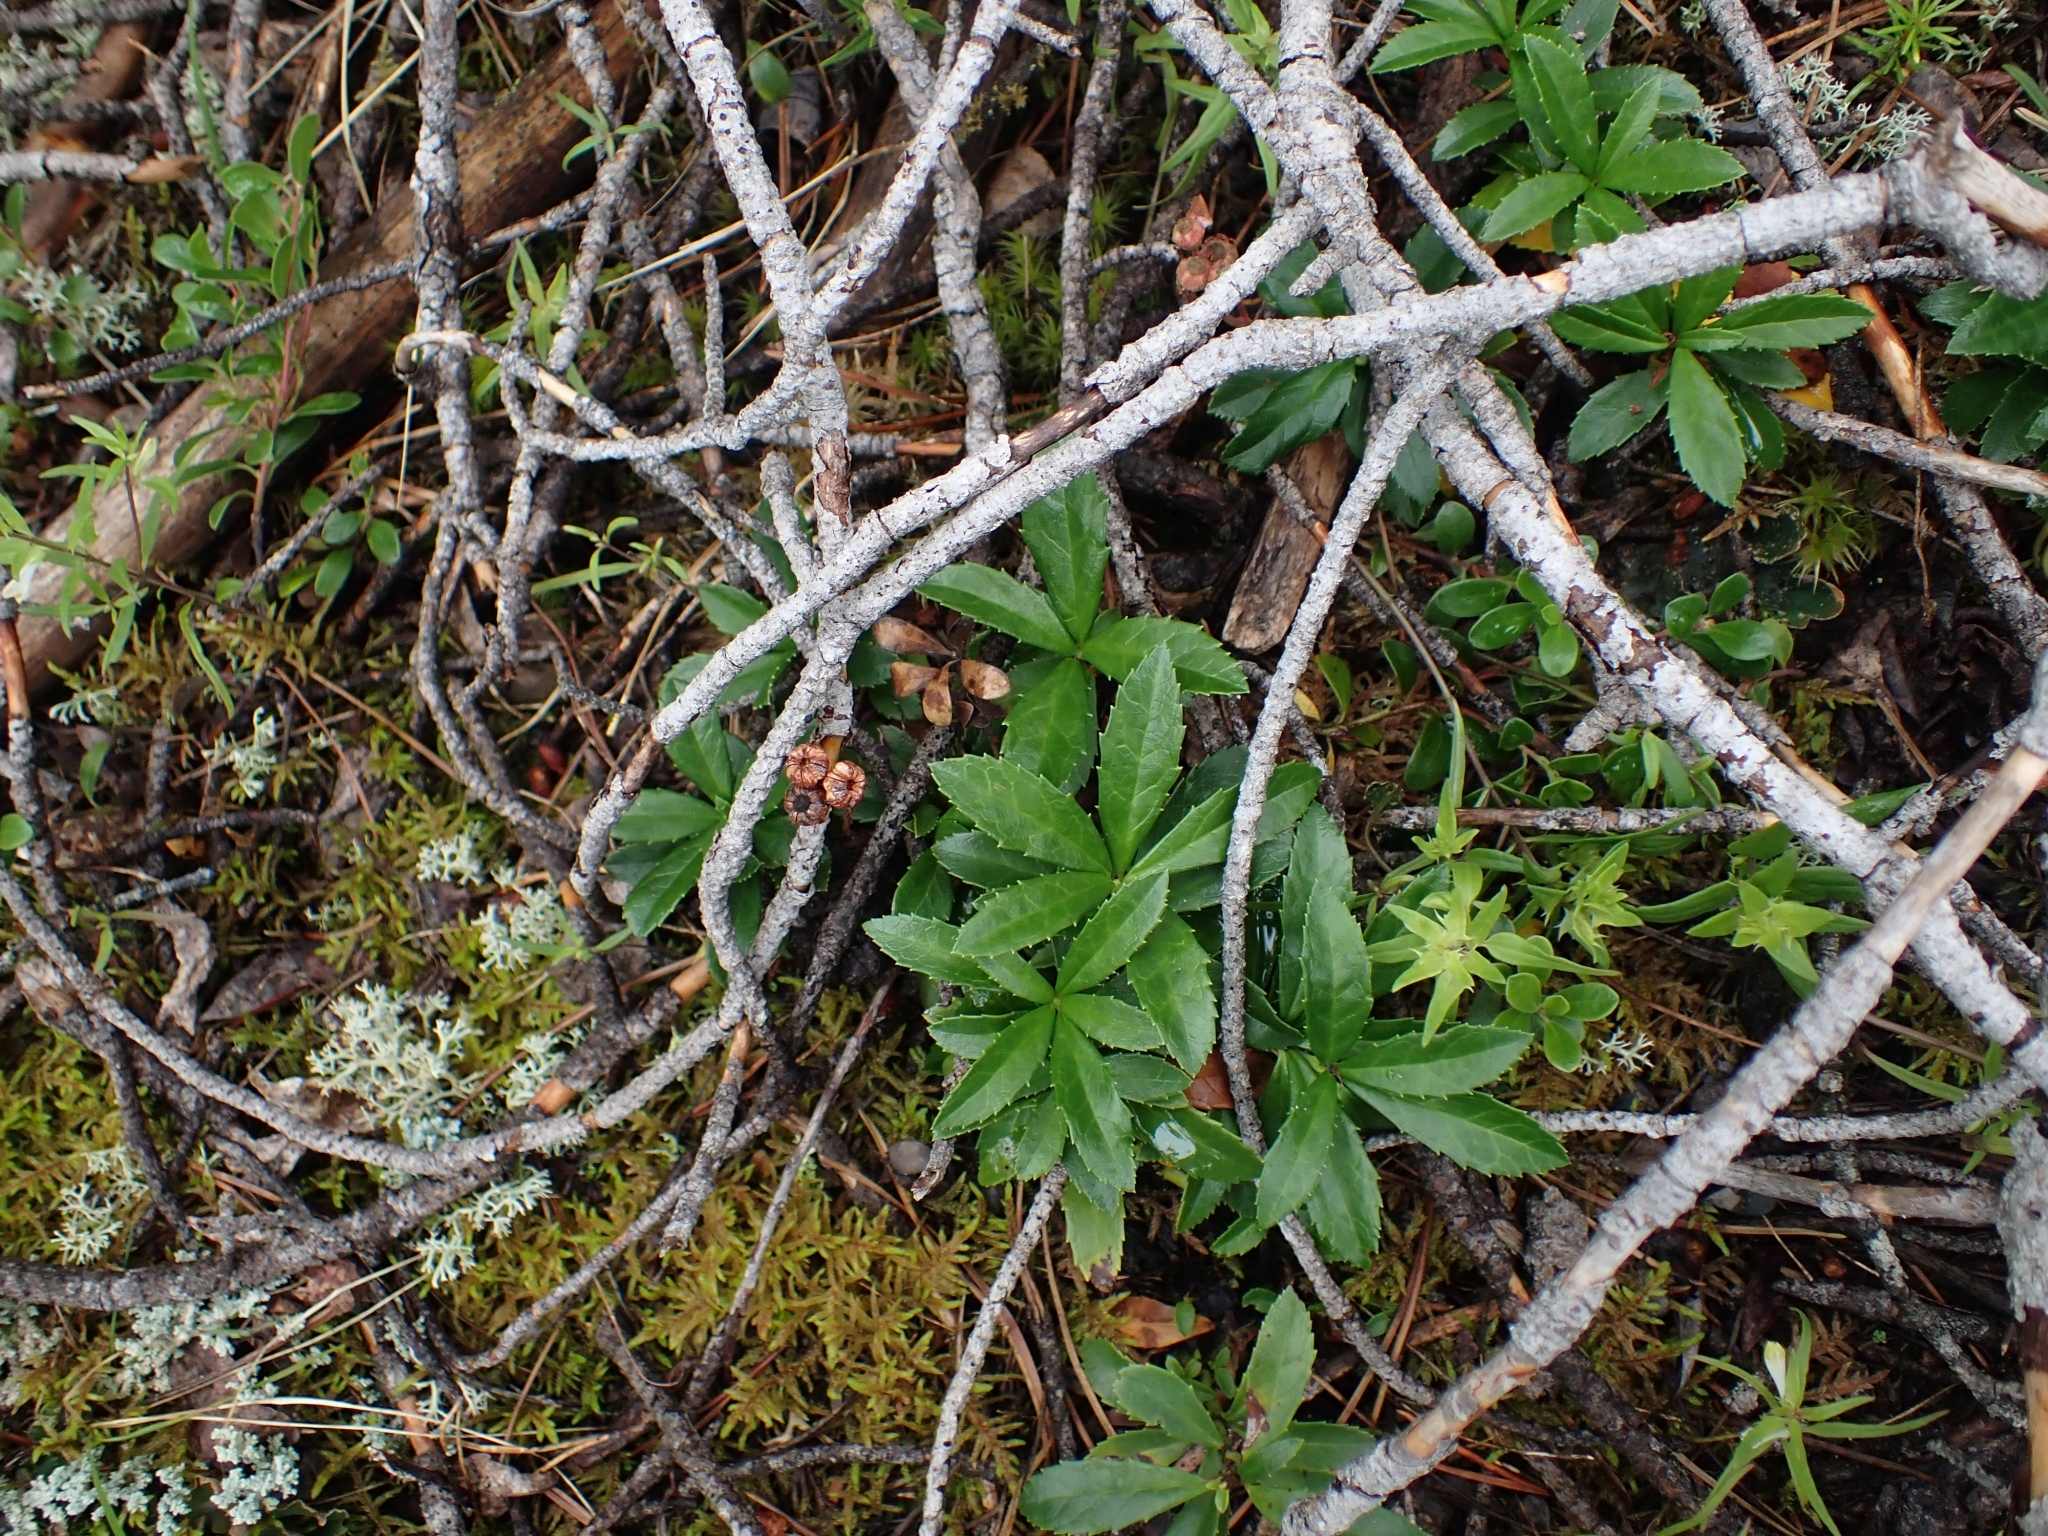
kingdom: Plantae
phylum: Tracheophyta
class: Magnoliopsida
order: Ericales
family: Ericaceae
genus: Chimaphila
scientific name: Chimaphila umbellata
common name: Pipsissewa
